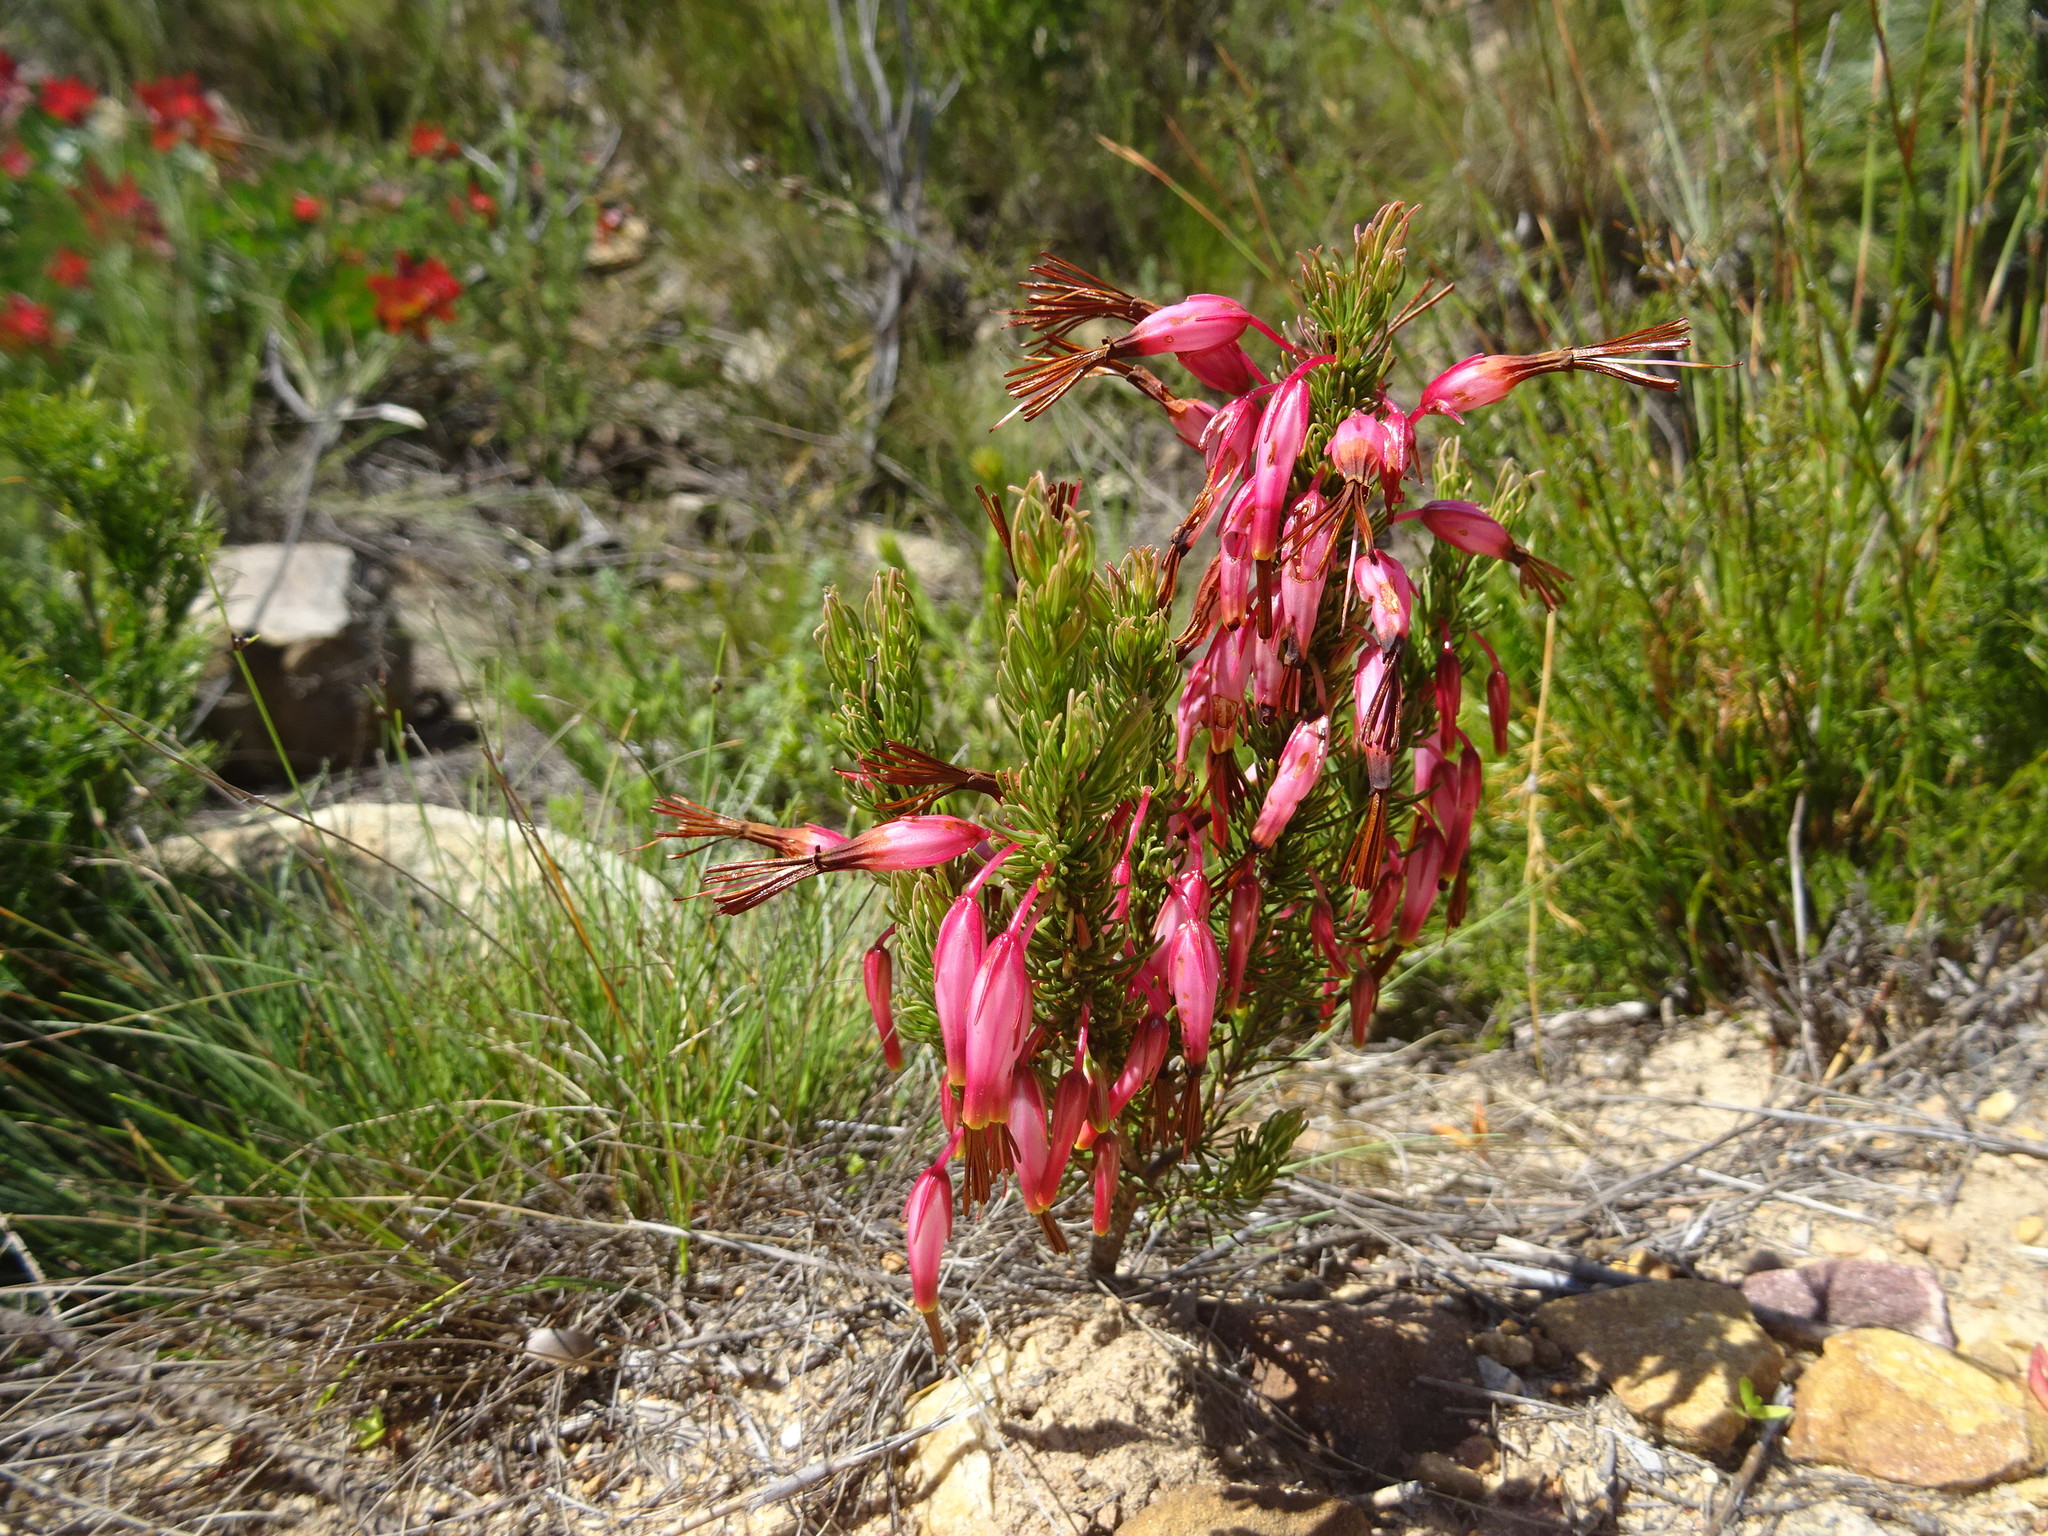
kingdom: Plantae
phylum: Tracheophyta
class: Magnoliopsida
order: Ericales
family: Ericaceae
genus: Erica
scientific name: Erica plukenetii
